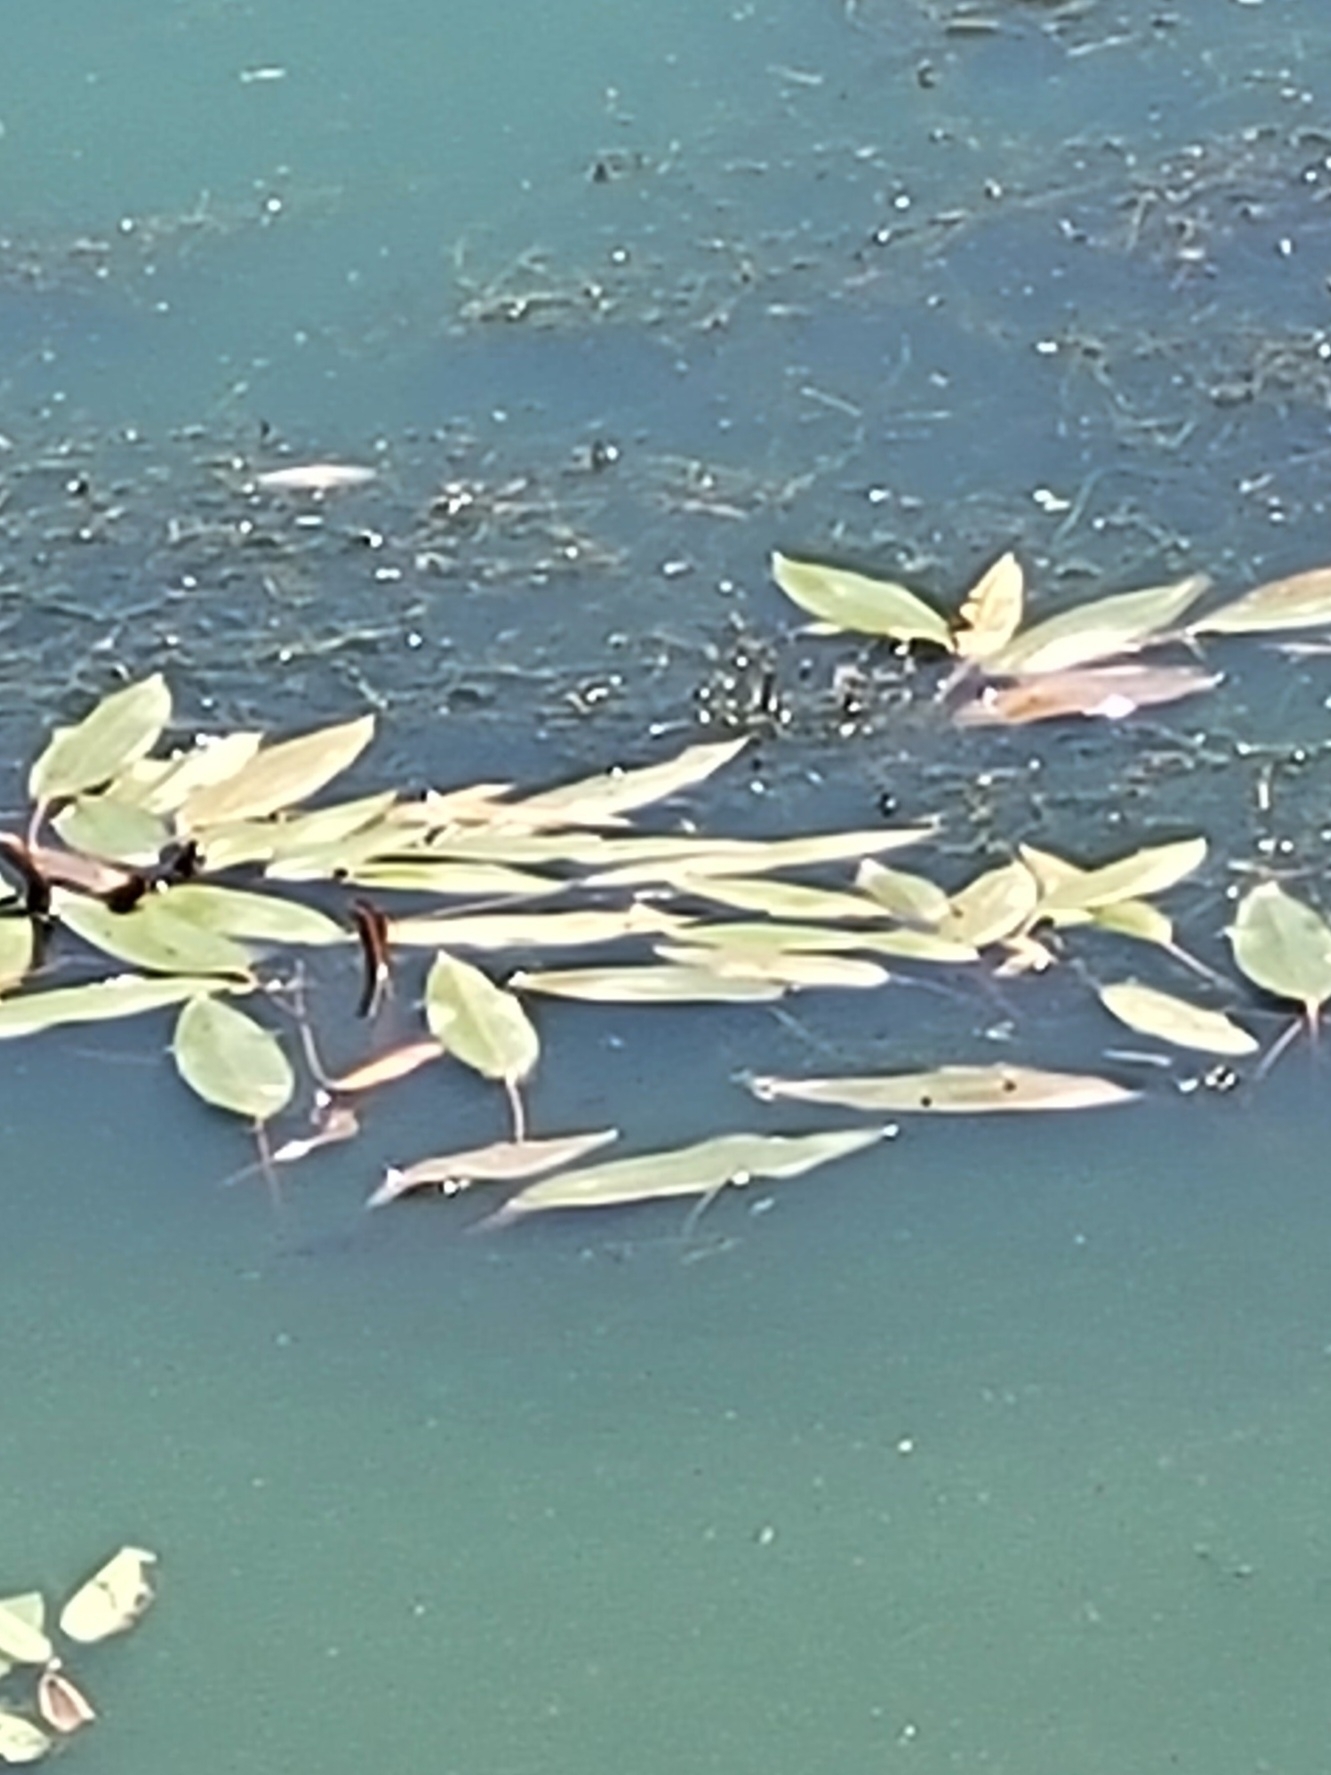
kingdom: Plantae
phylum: Tracheophyta
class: Liliopsida
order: Alismatales
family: Potamogetonaceae
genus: Potamogeton
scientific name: Potamogeton natans
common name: Broad-leaved pondweed
